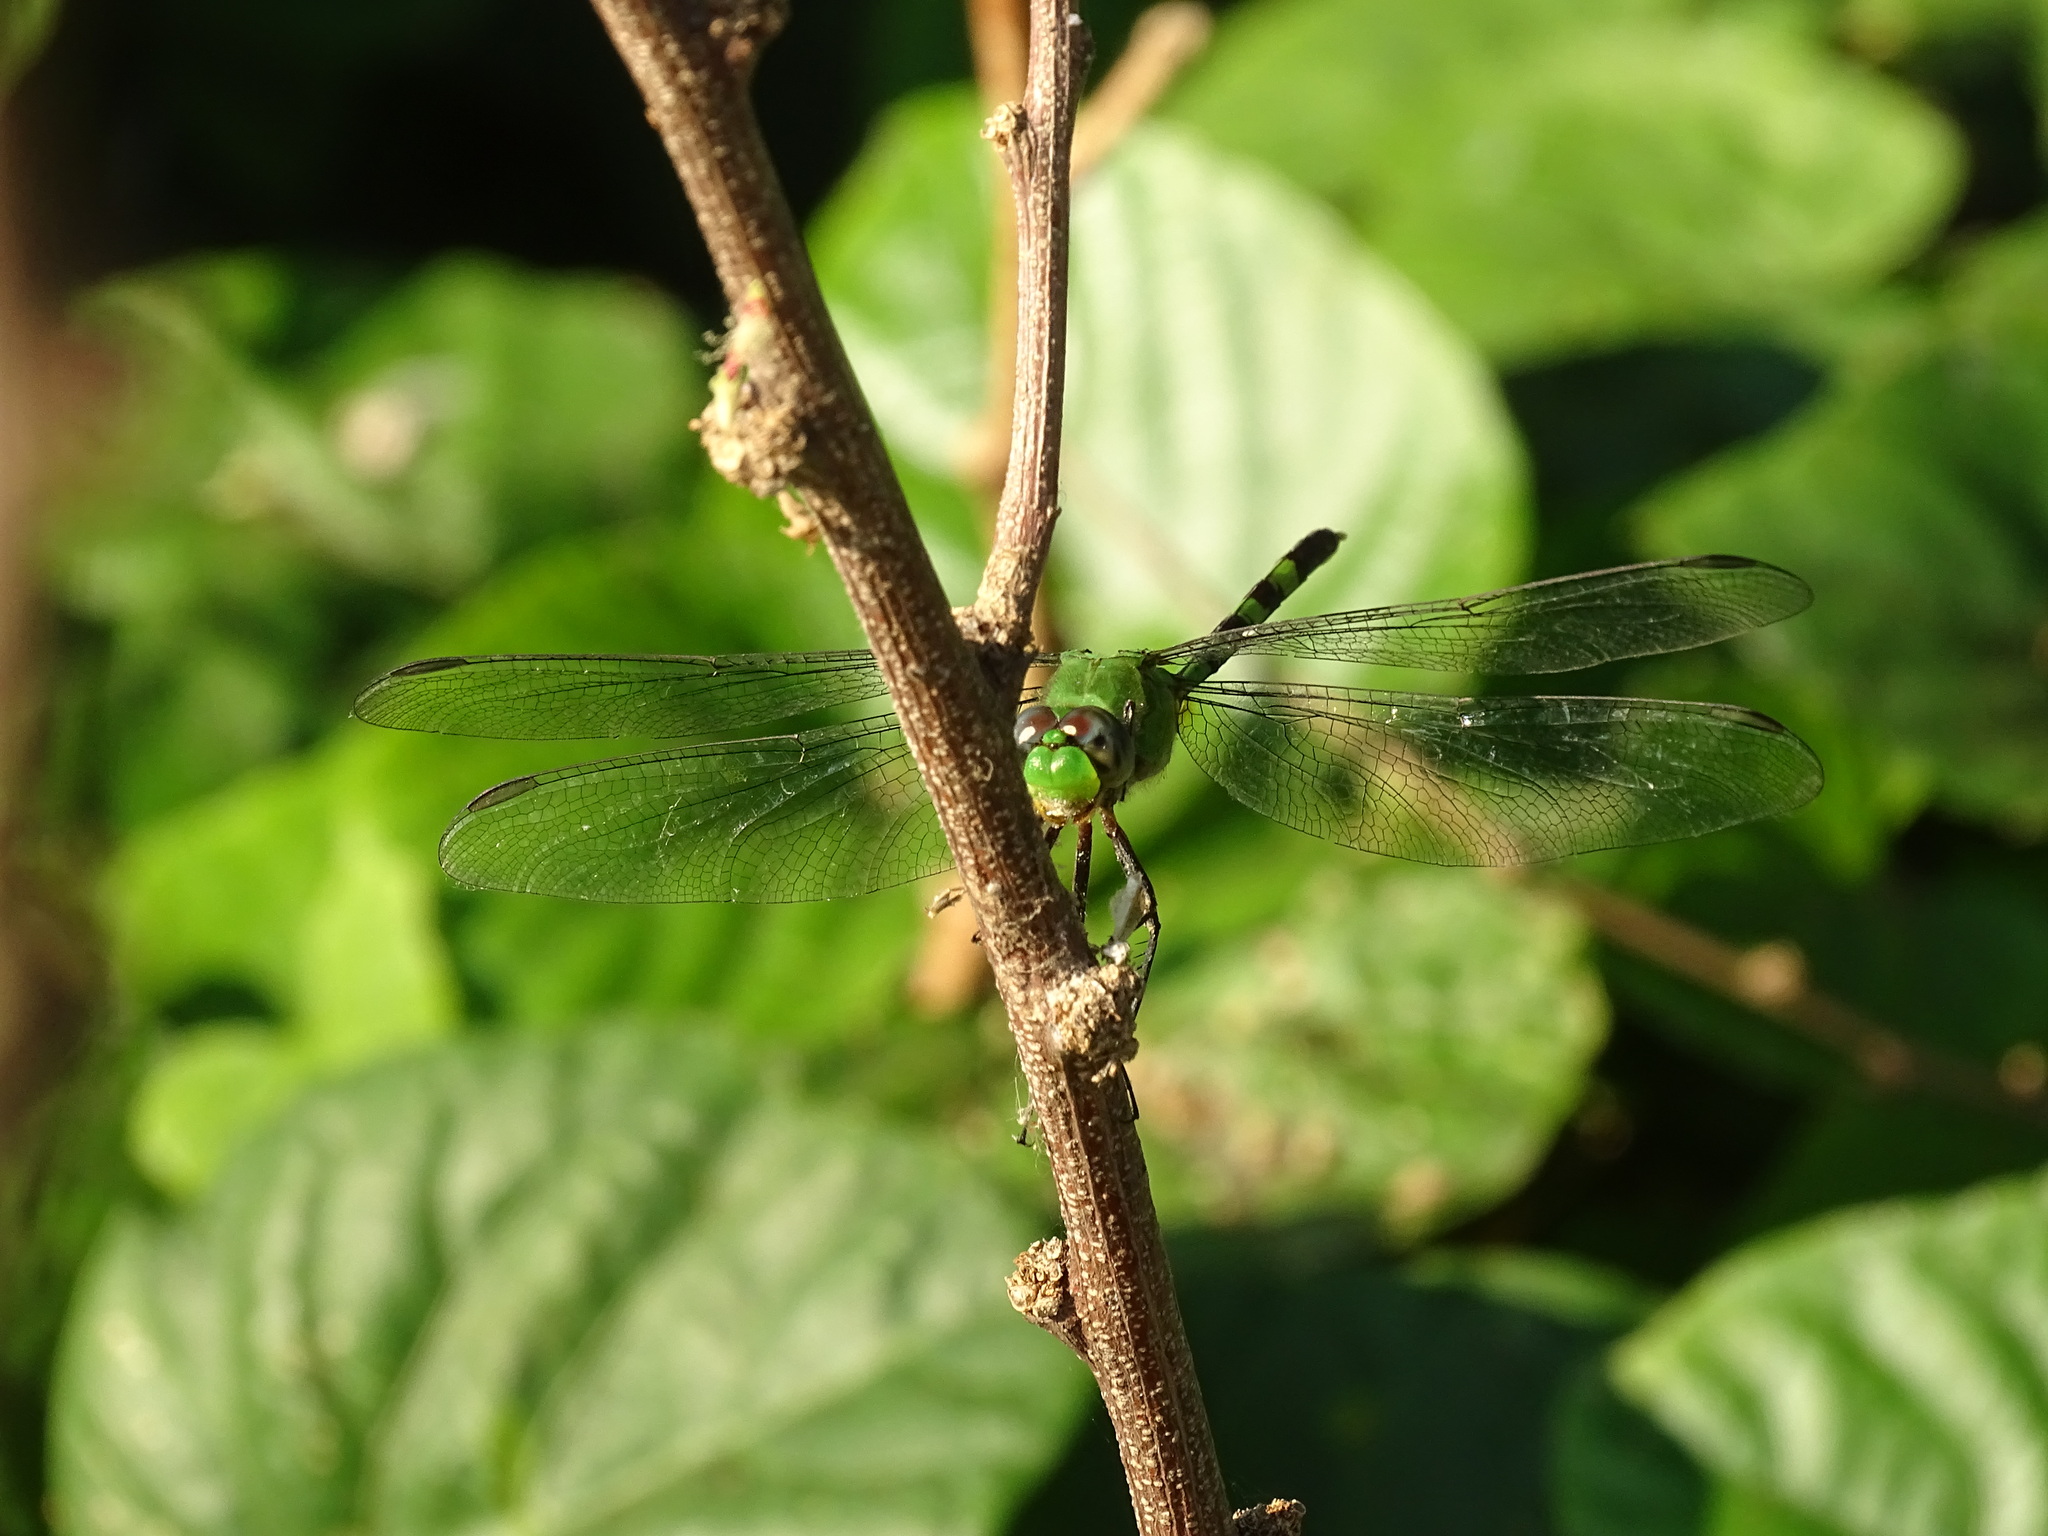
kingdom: Animalia
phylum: Arthropoda
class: Insecta
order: Odonata
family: Libellulidae
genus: Erythemis
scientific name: Erythemis vesiculosa
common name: Great pondhawk
